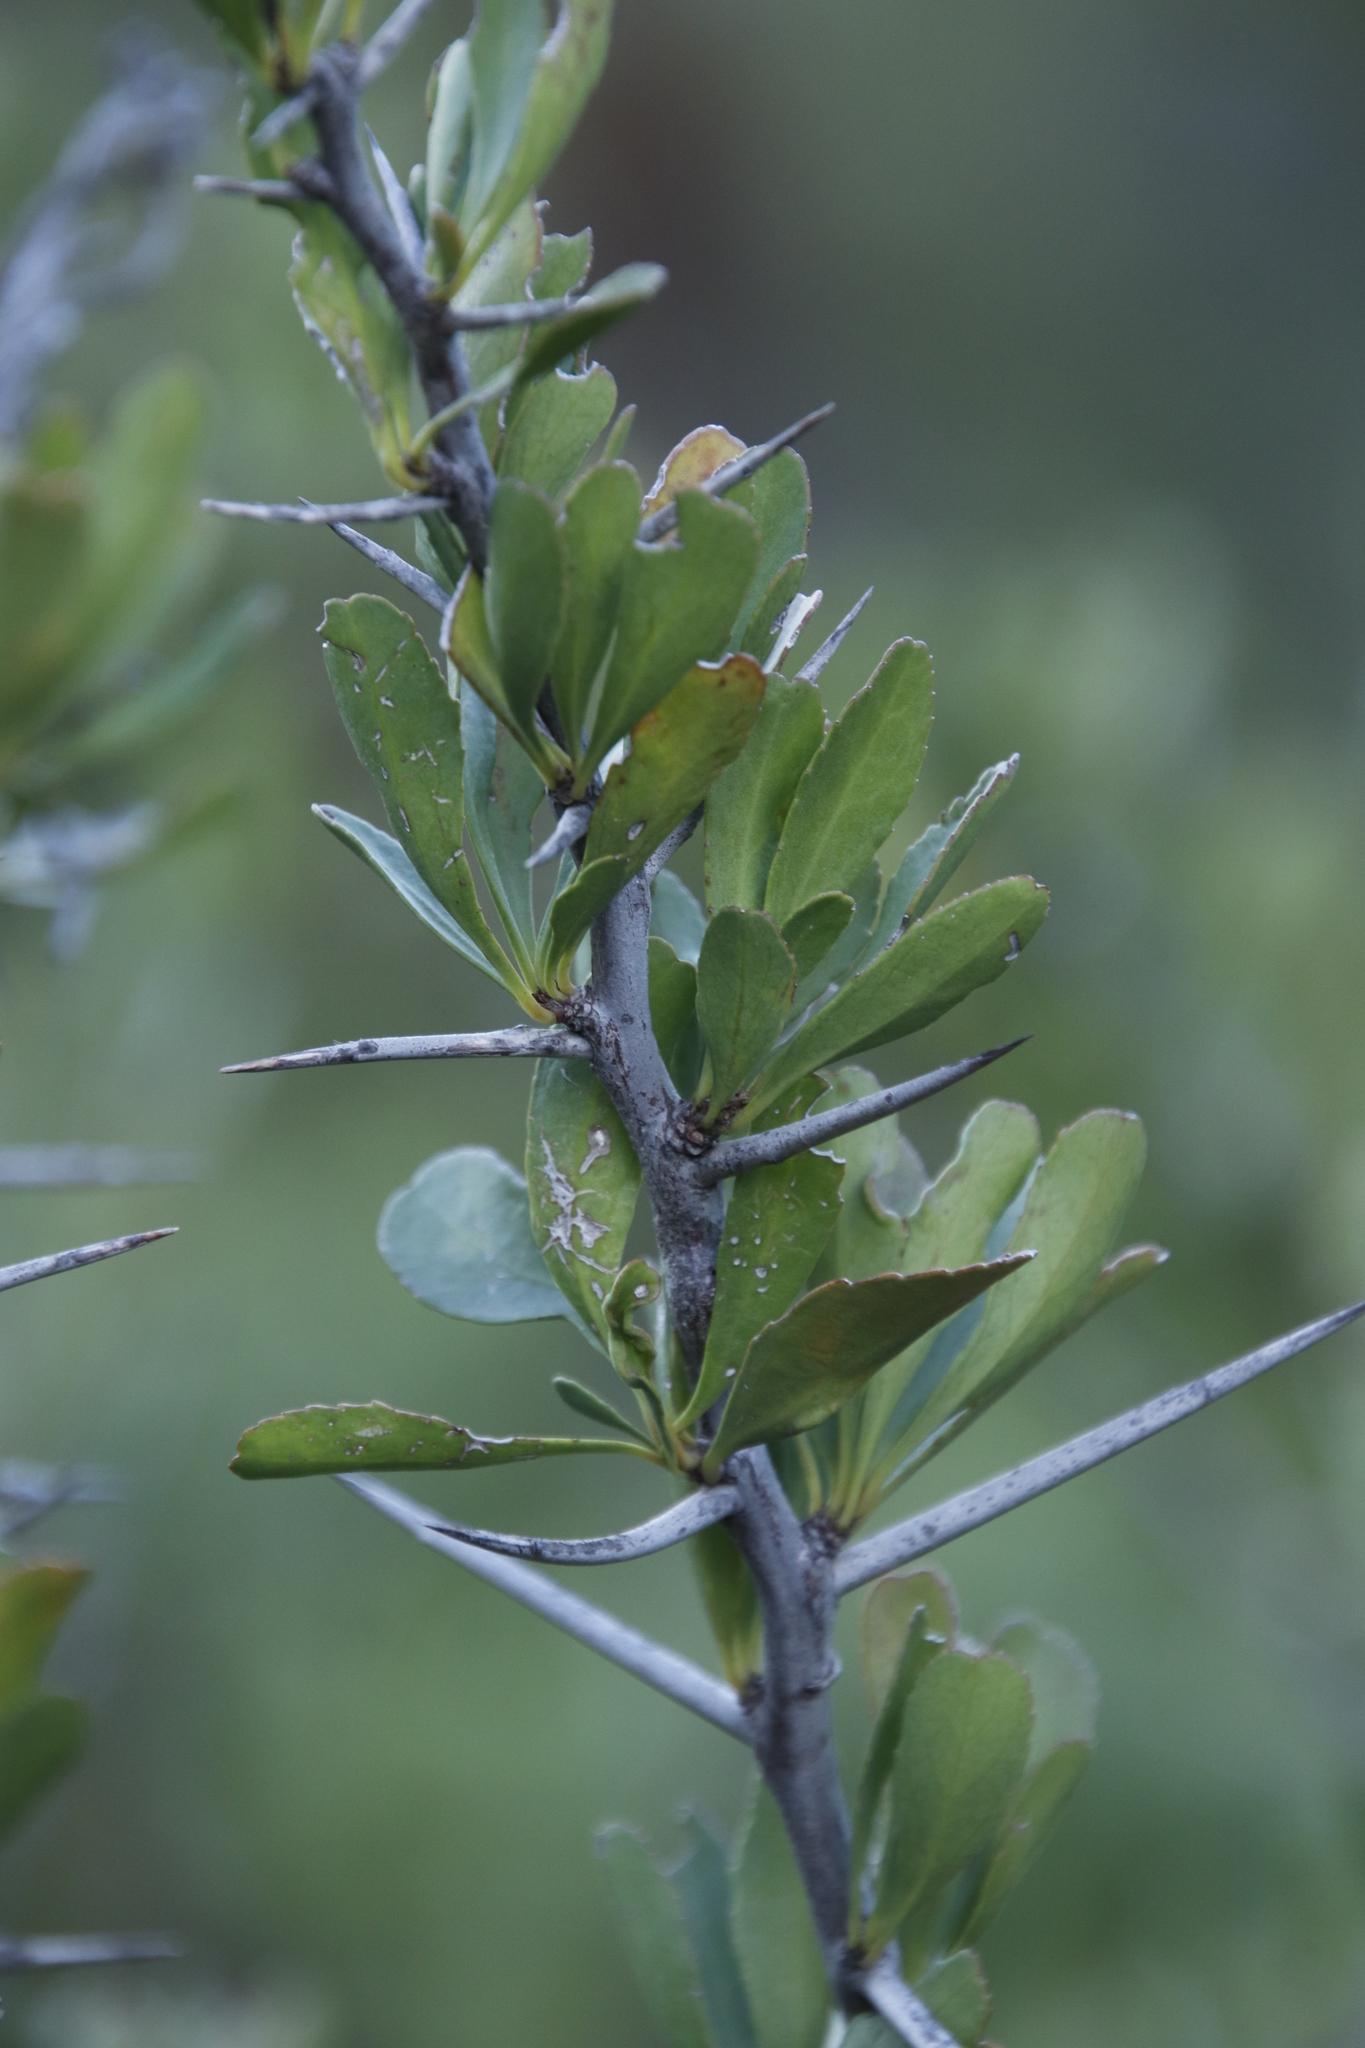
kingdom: Plantae
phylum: Tracheophyta
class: Magnoliopsida
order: Celastrales
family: Celastraceae
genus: Gymnosporia
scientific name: Gymnosporia buxifolia
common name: Common spike-thorn
